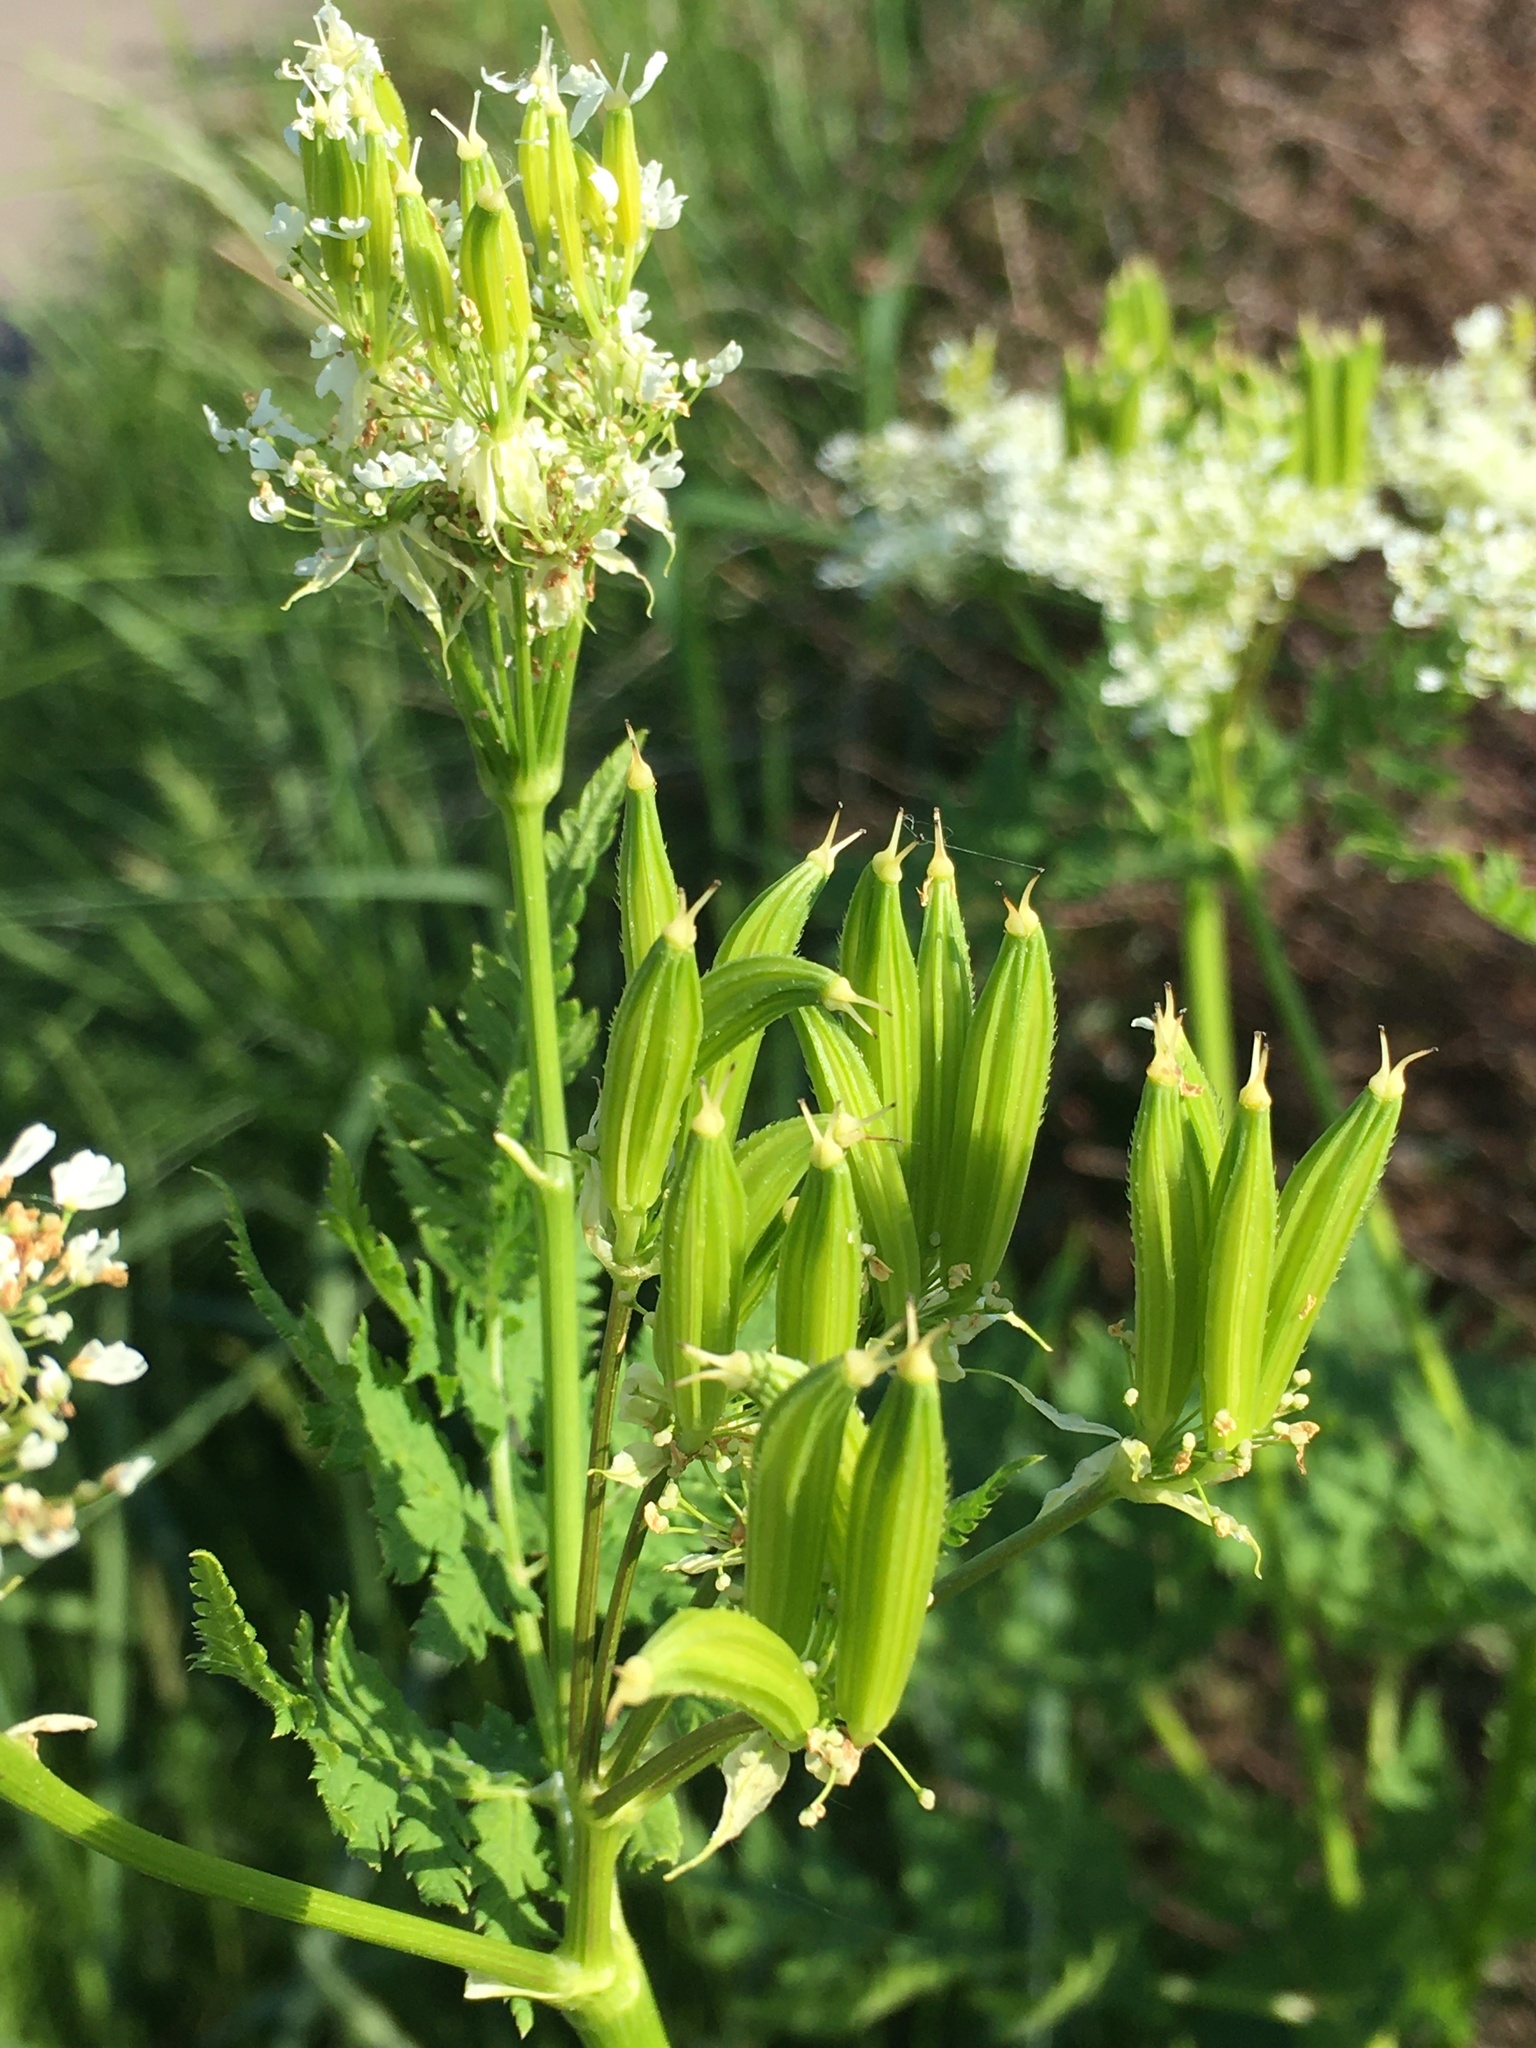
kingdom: Plantae
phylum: Tracheophyta
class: Magnoliopsida
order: Apiales
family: Apiaceae
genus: Myrrhis
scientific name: Myrrhis odorata
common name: Sweet cicely
